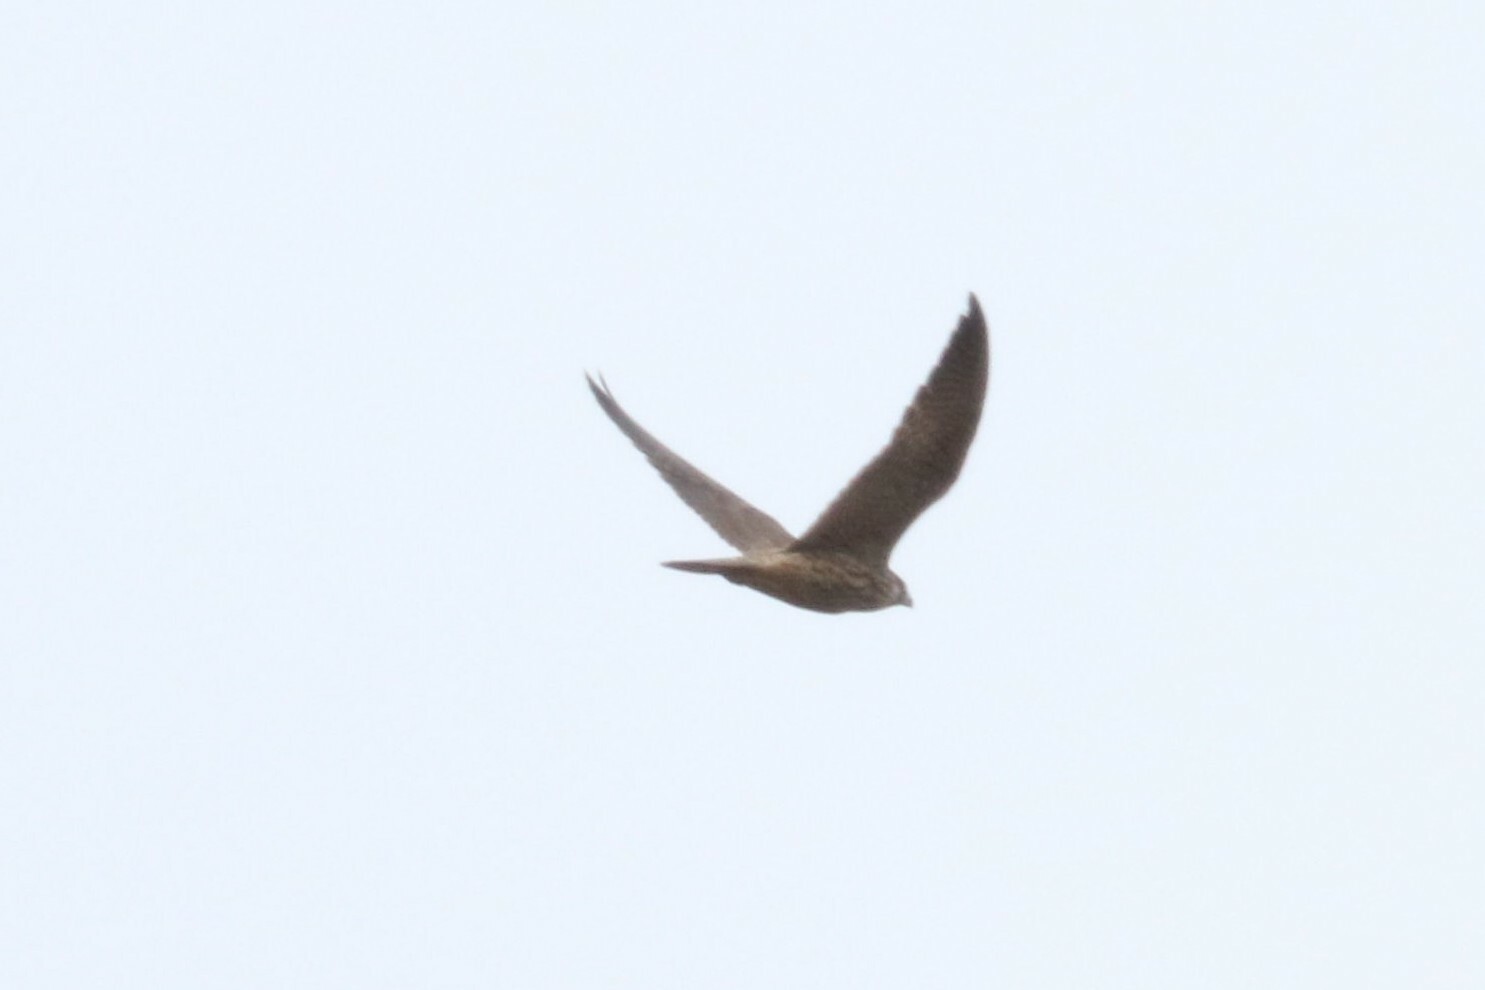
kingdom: Animalia
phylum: Chordata
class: Aves
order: Falconiformes
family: Falconidae
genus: Falco
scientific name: Falco peregrinus
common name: Peregrine falcon
